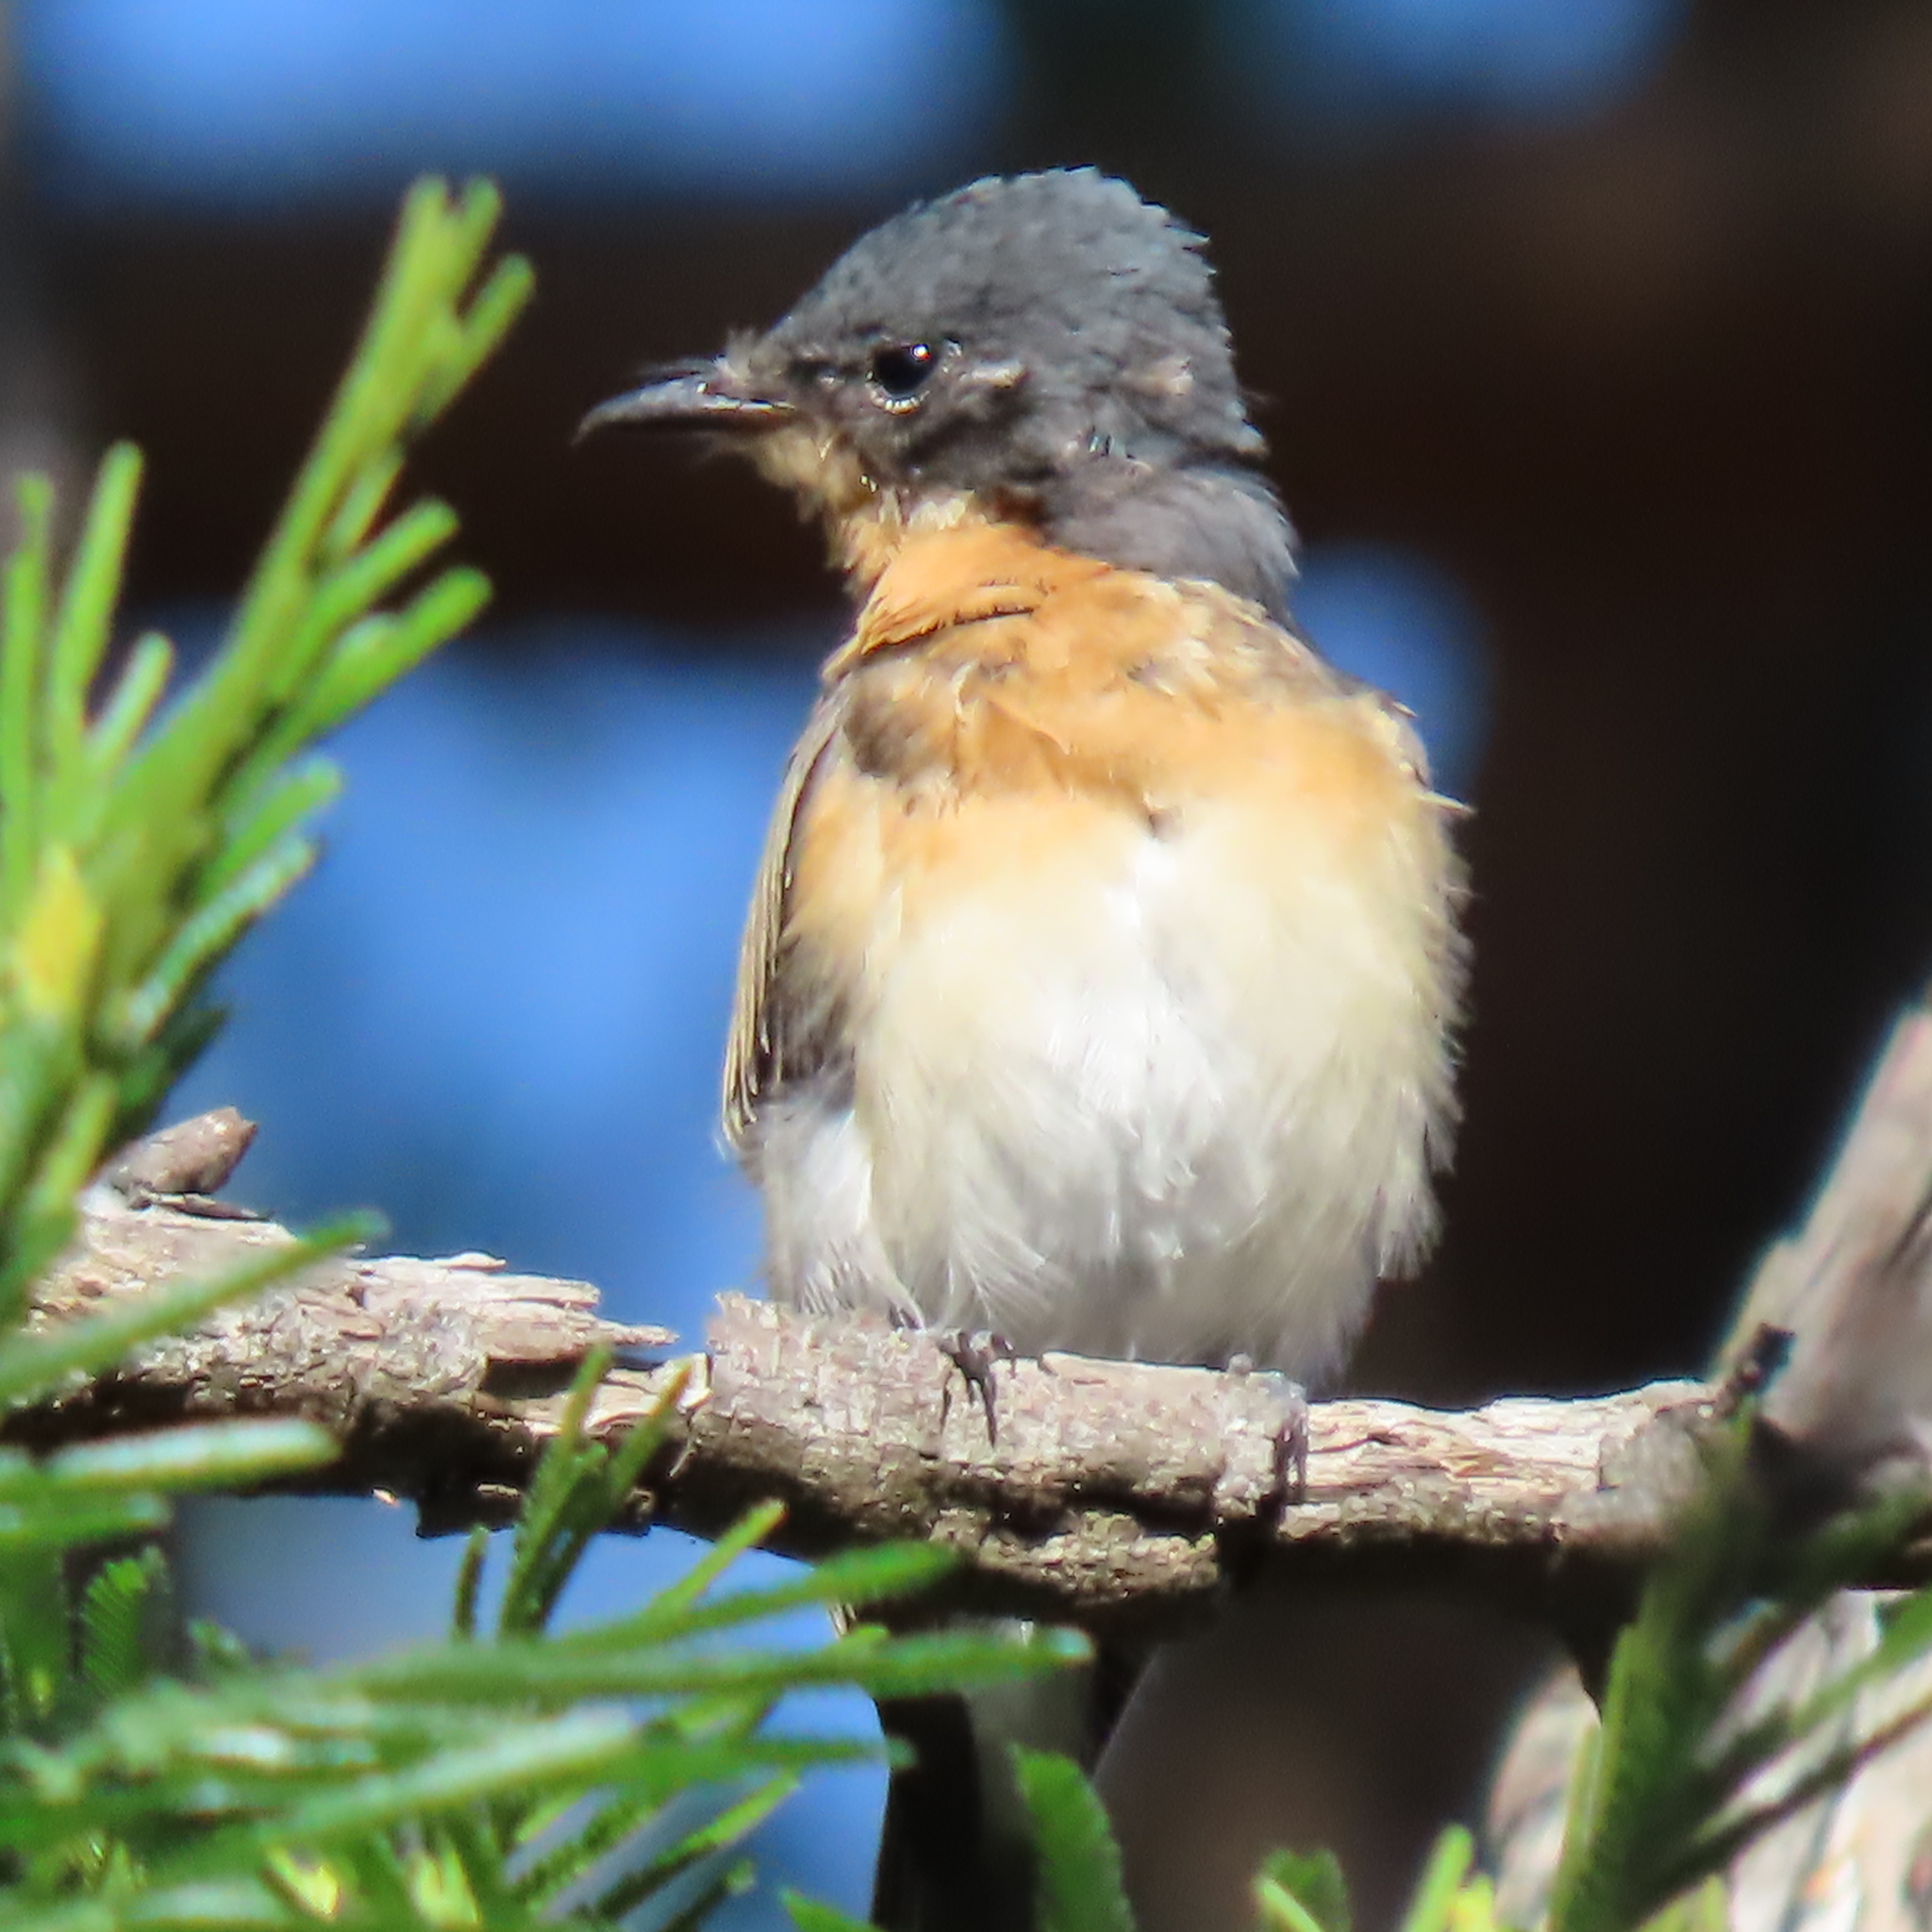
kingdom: Animalia
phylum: Chordata
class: Aves
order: Passeriformes
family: Monarchidae
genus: Myiagra
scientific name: Myiagra cyanoleuca
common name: Satin flycatcher
